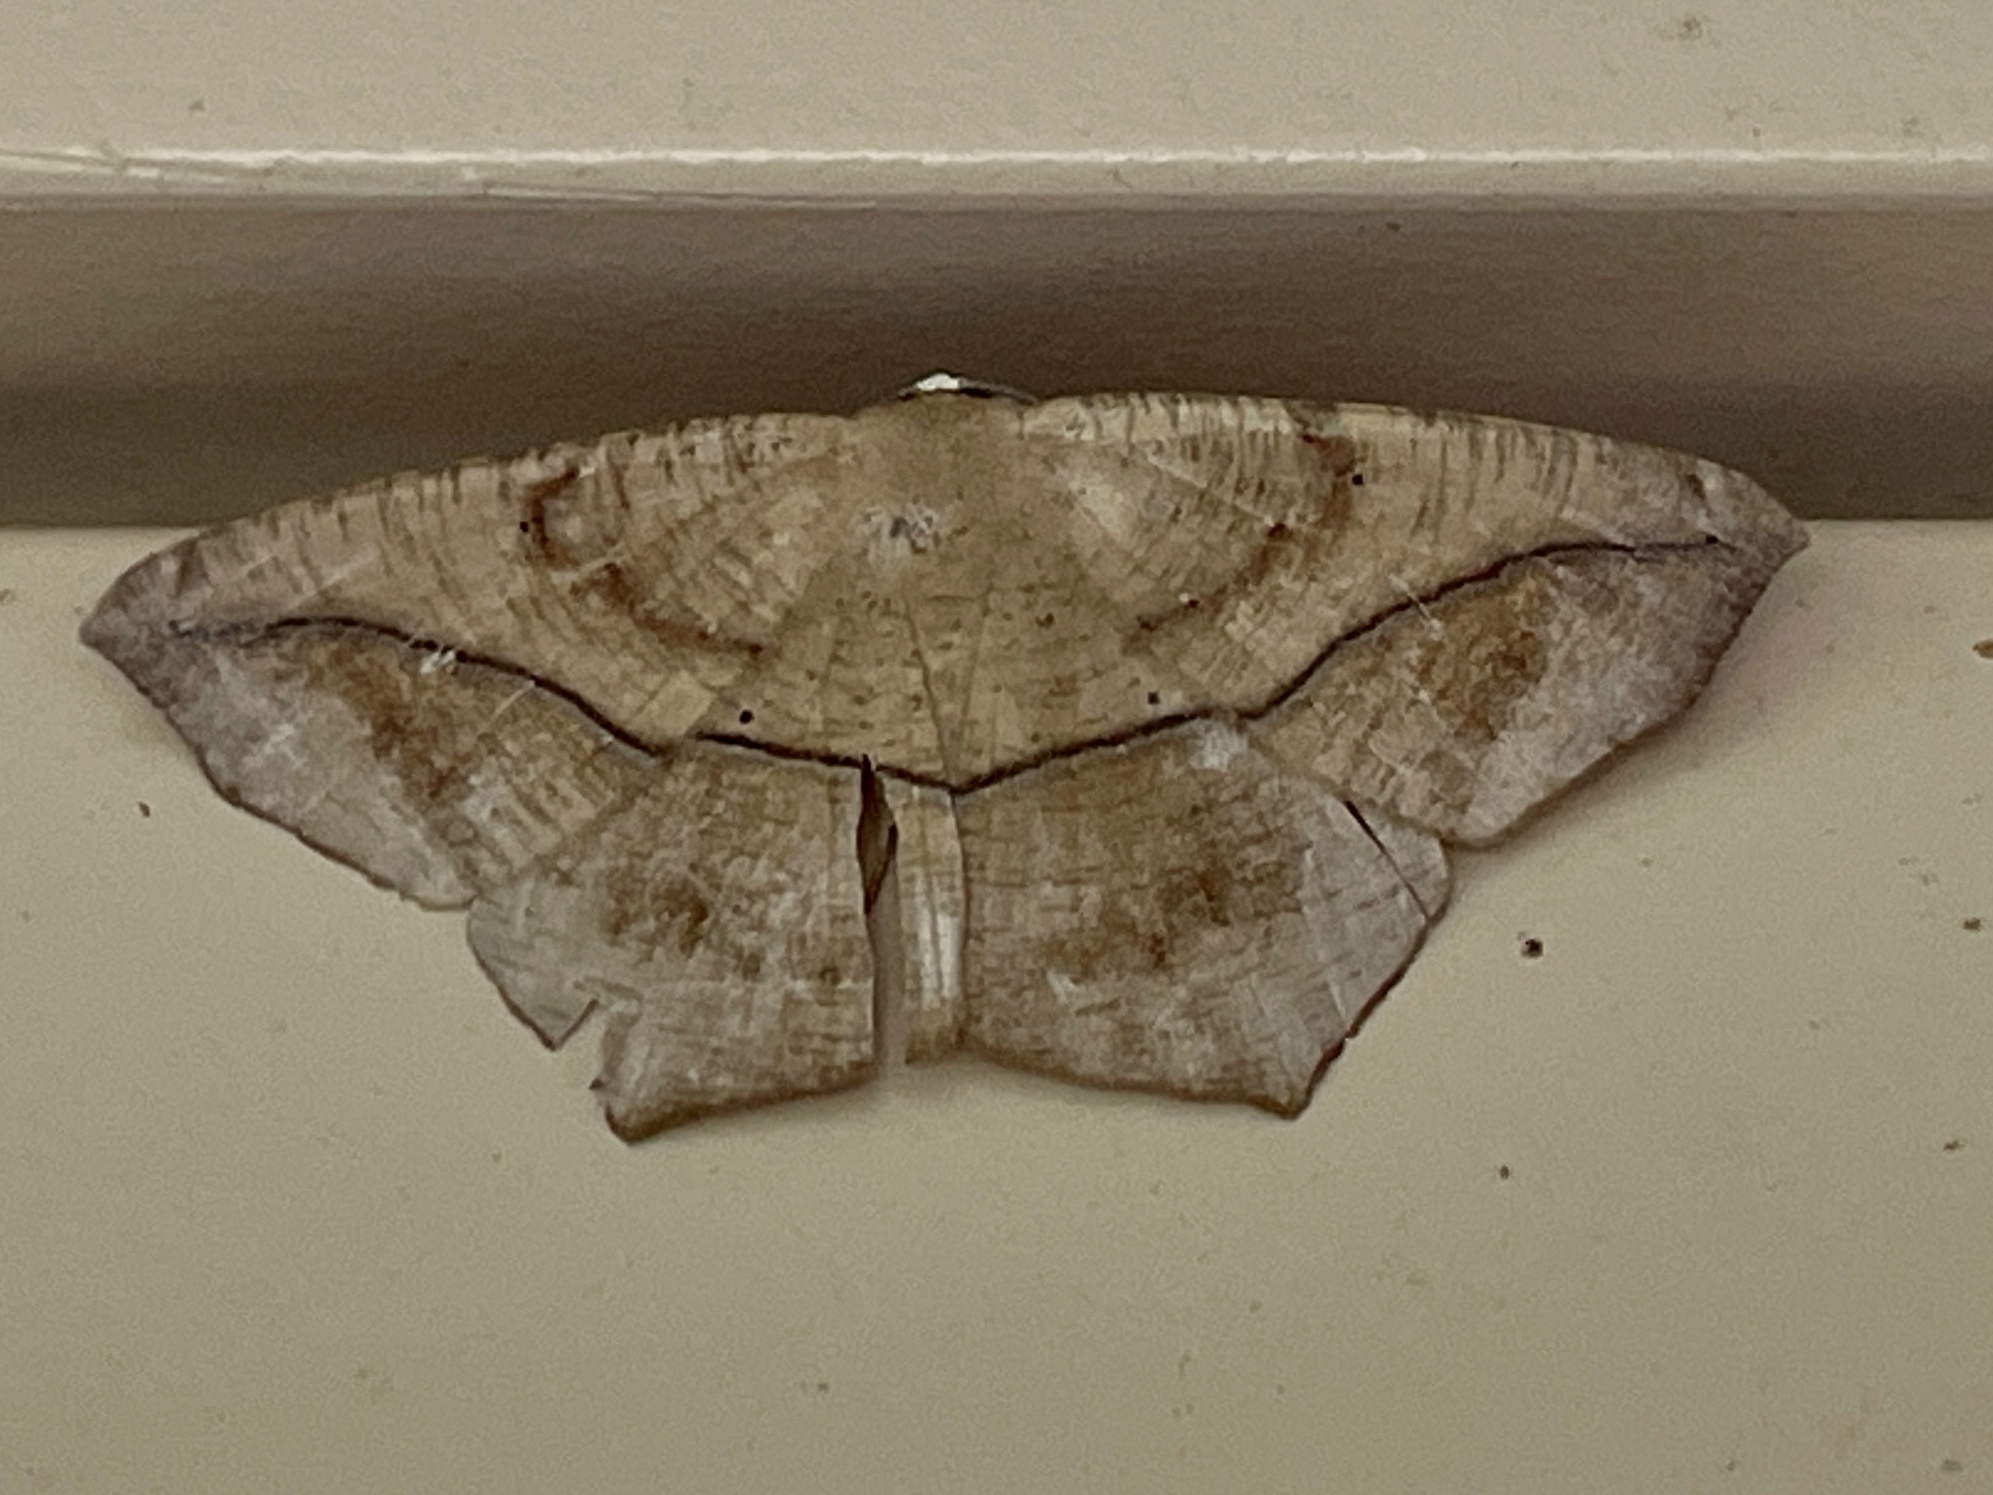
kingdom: Animalia
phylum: Arthropoda
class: Insecta
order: Lepidoptera
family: Geometridae
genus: Prochoerodes
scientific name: Prochoerodes lineola
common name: Large maple spanworm
